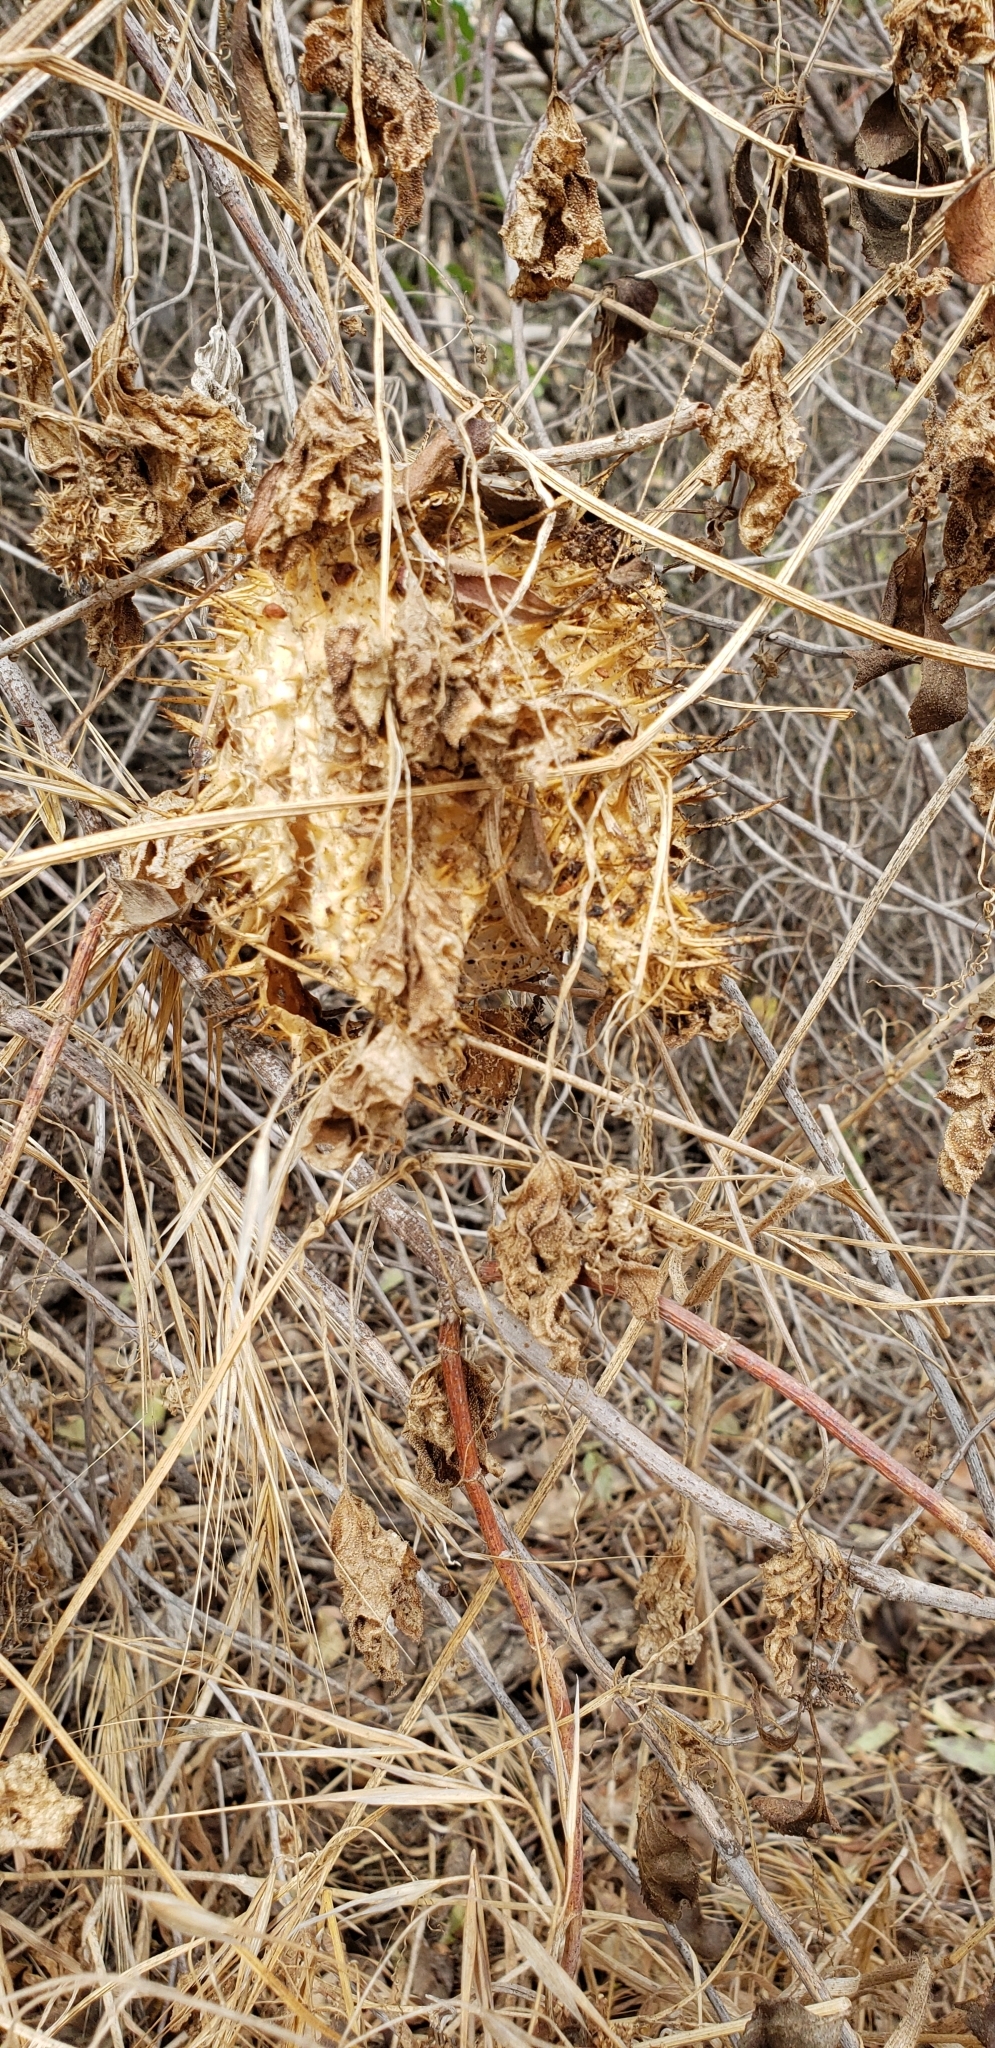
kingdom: Plantae
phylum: Tracheophyta
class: Magnoliopsida
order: Cucurbitales
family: Cucurbitaceae
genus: Marah
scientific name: Marah macrocarpa
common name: Cucamonga manroot
